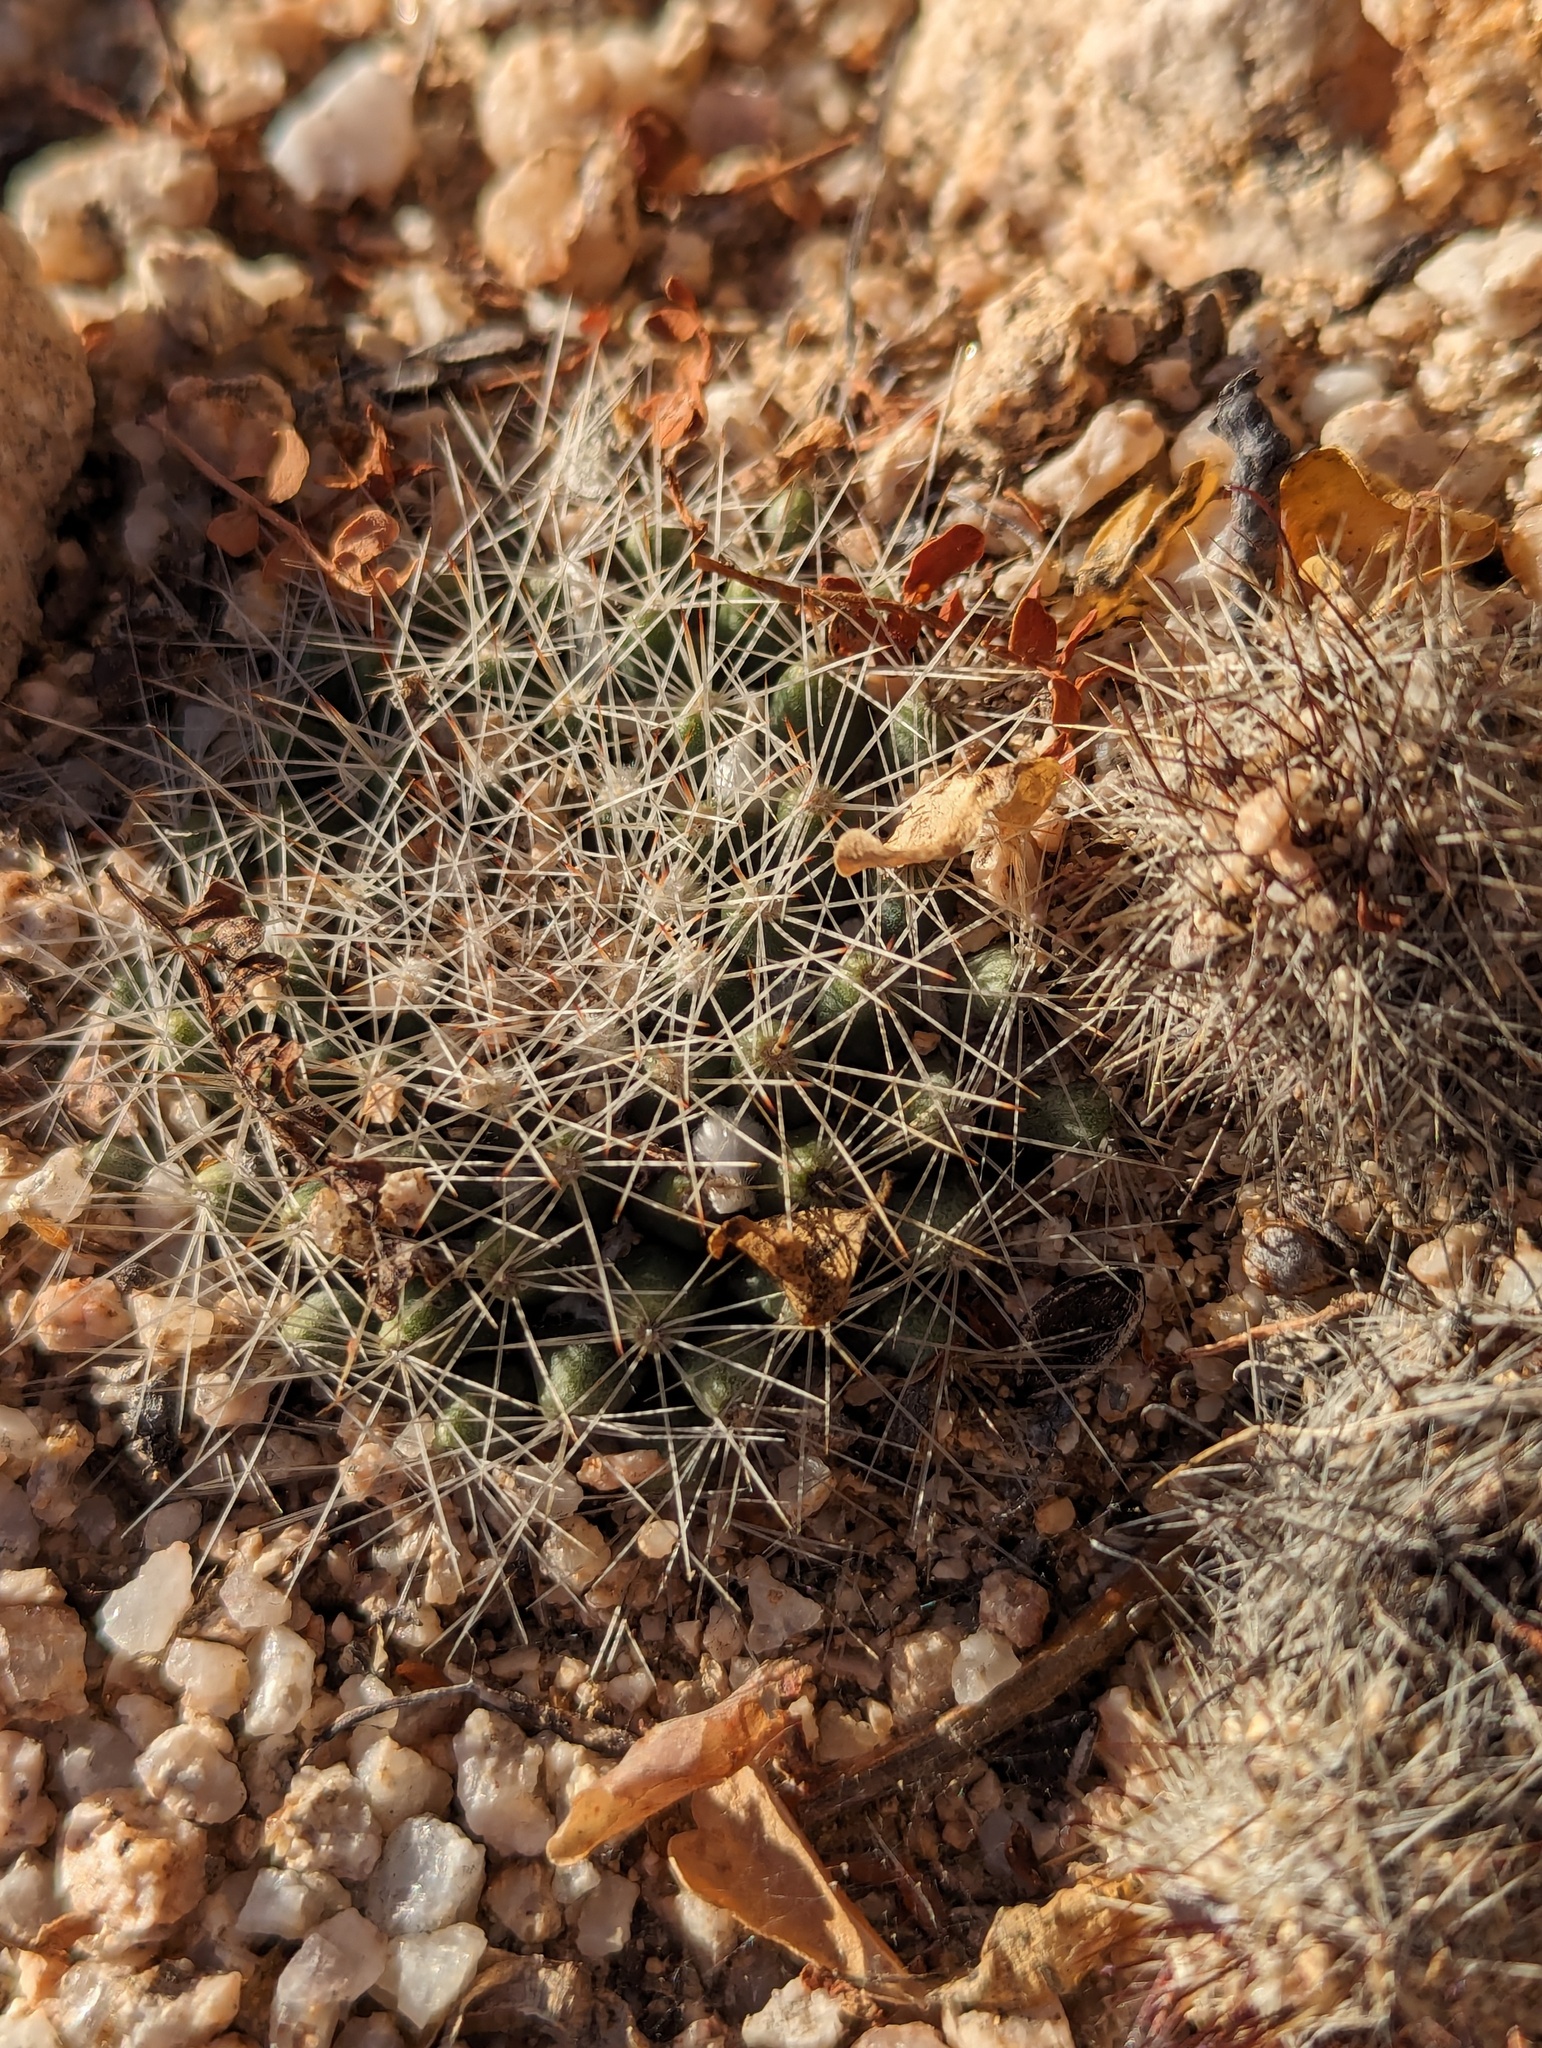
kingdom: Plantae
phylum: Tracheophyta
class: Magnoliopsida
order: Caryophyllales
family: Cactaceae
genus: Mammillaria
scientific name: Mammillaria petrophila
